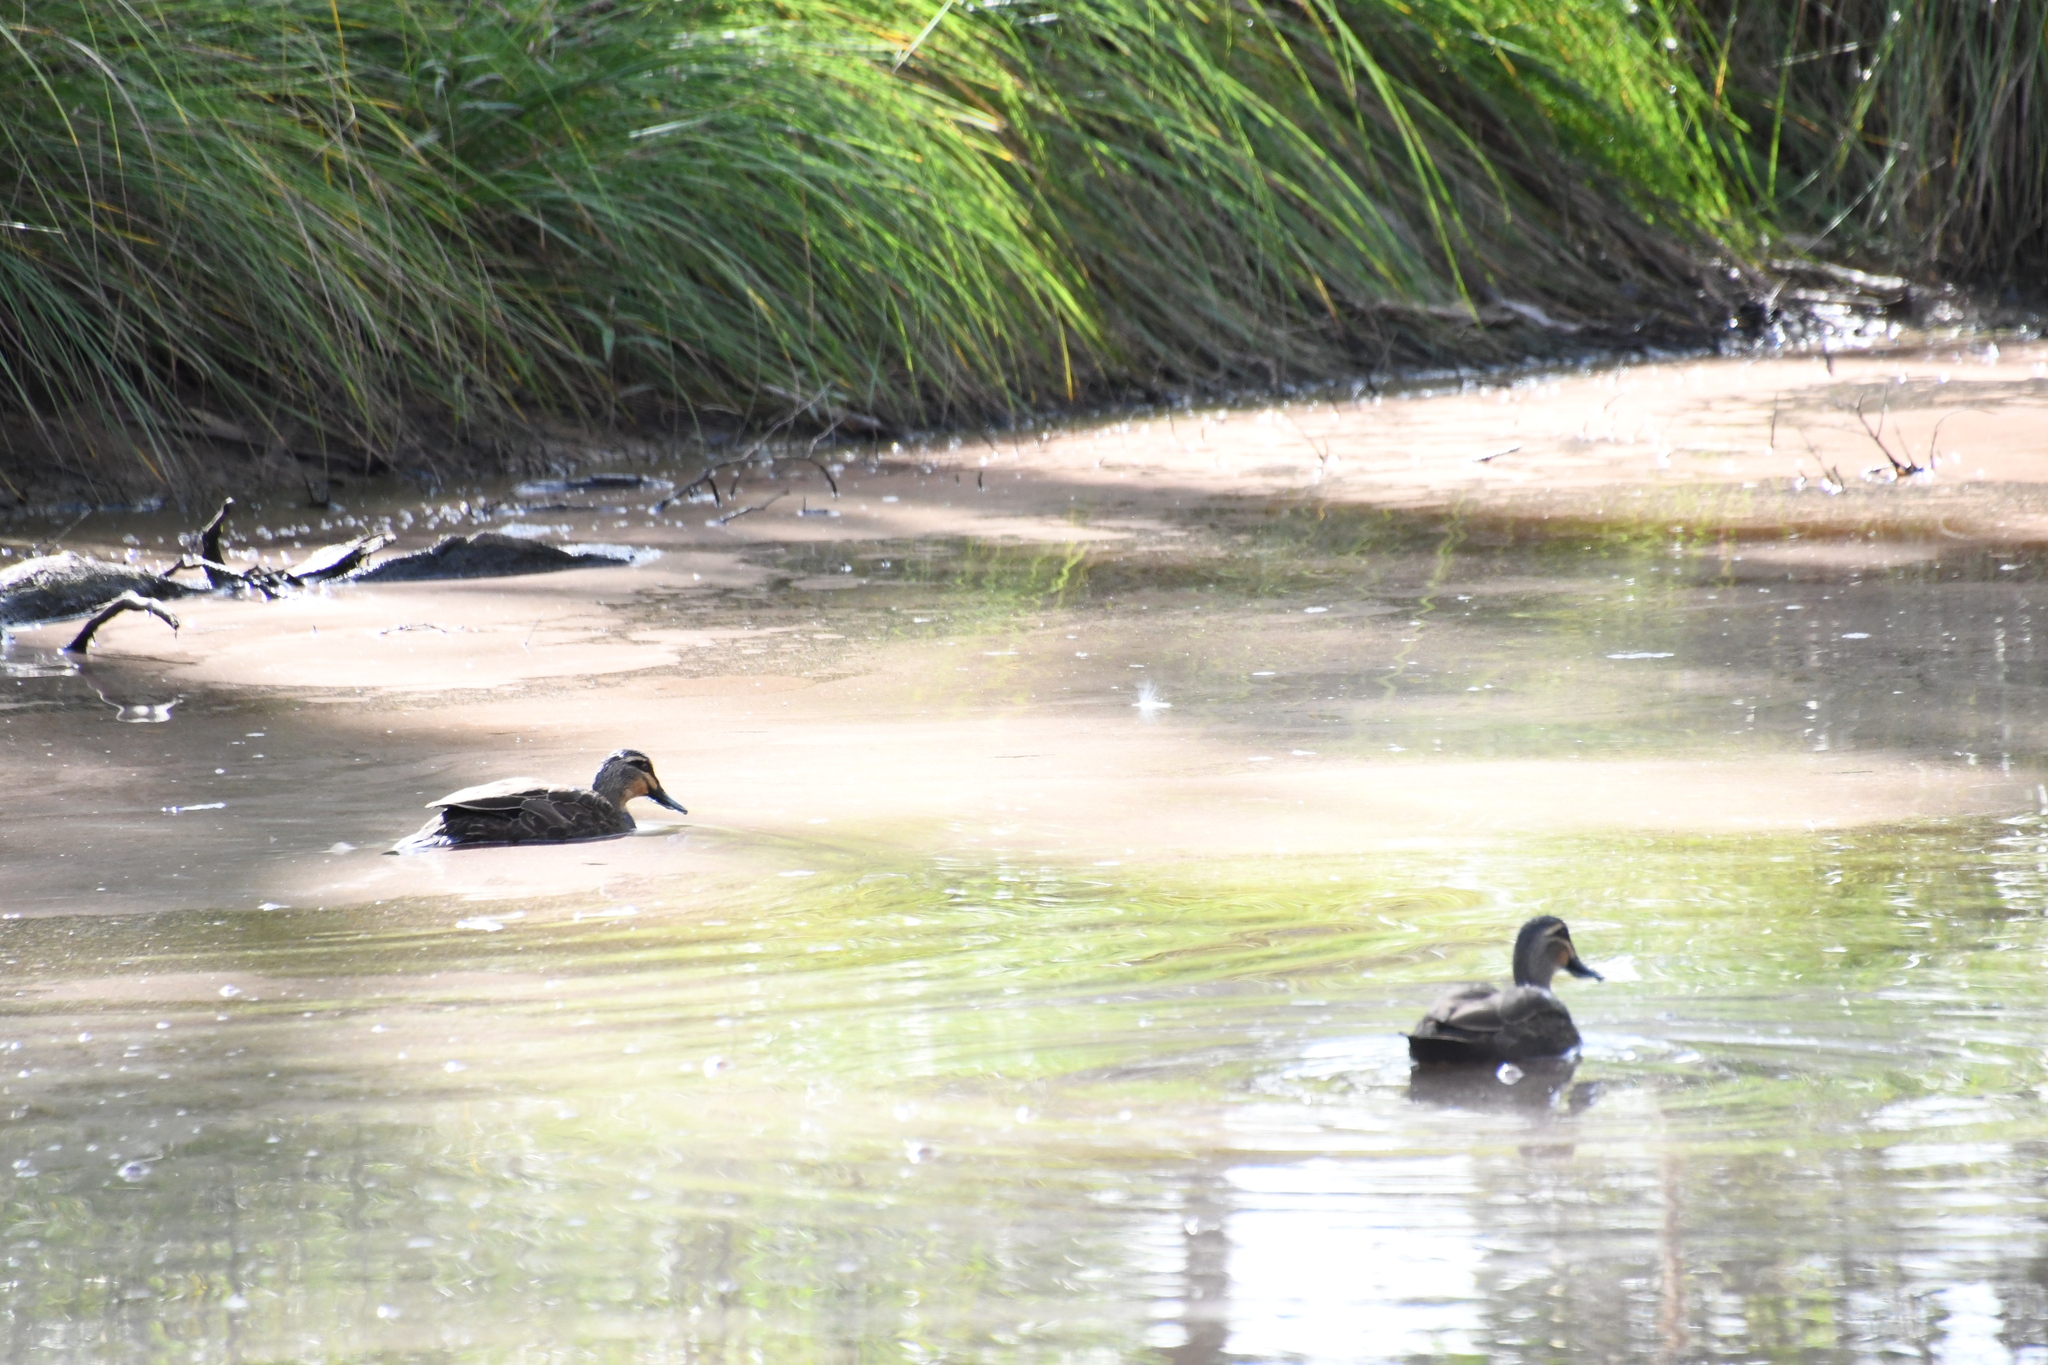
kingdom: Animalia
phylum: Chordata
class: Aves
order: Anseriformes
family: Anatidae
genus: Anas
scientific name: Anas superciliosa
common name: Pacific black duck
